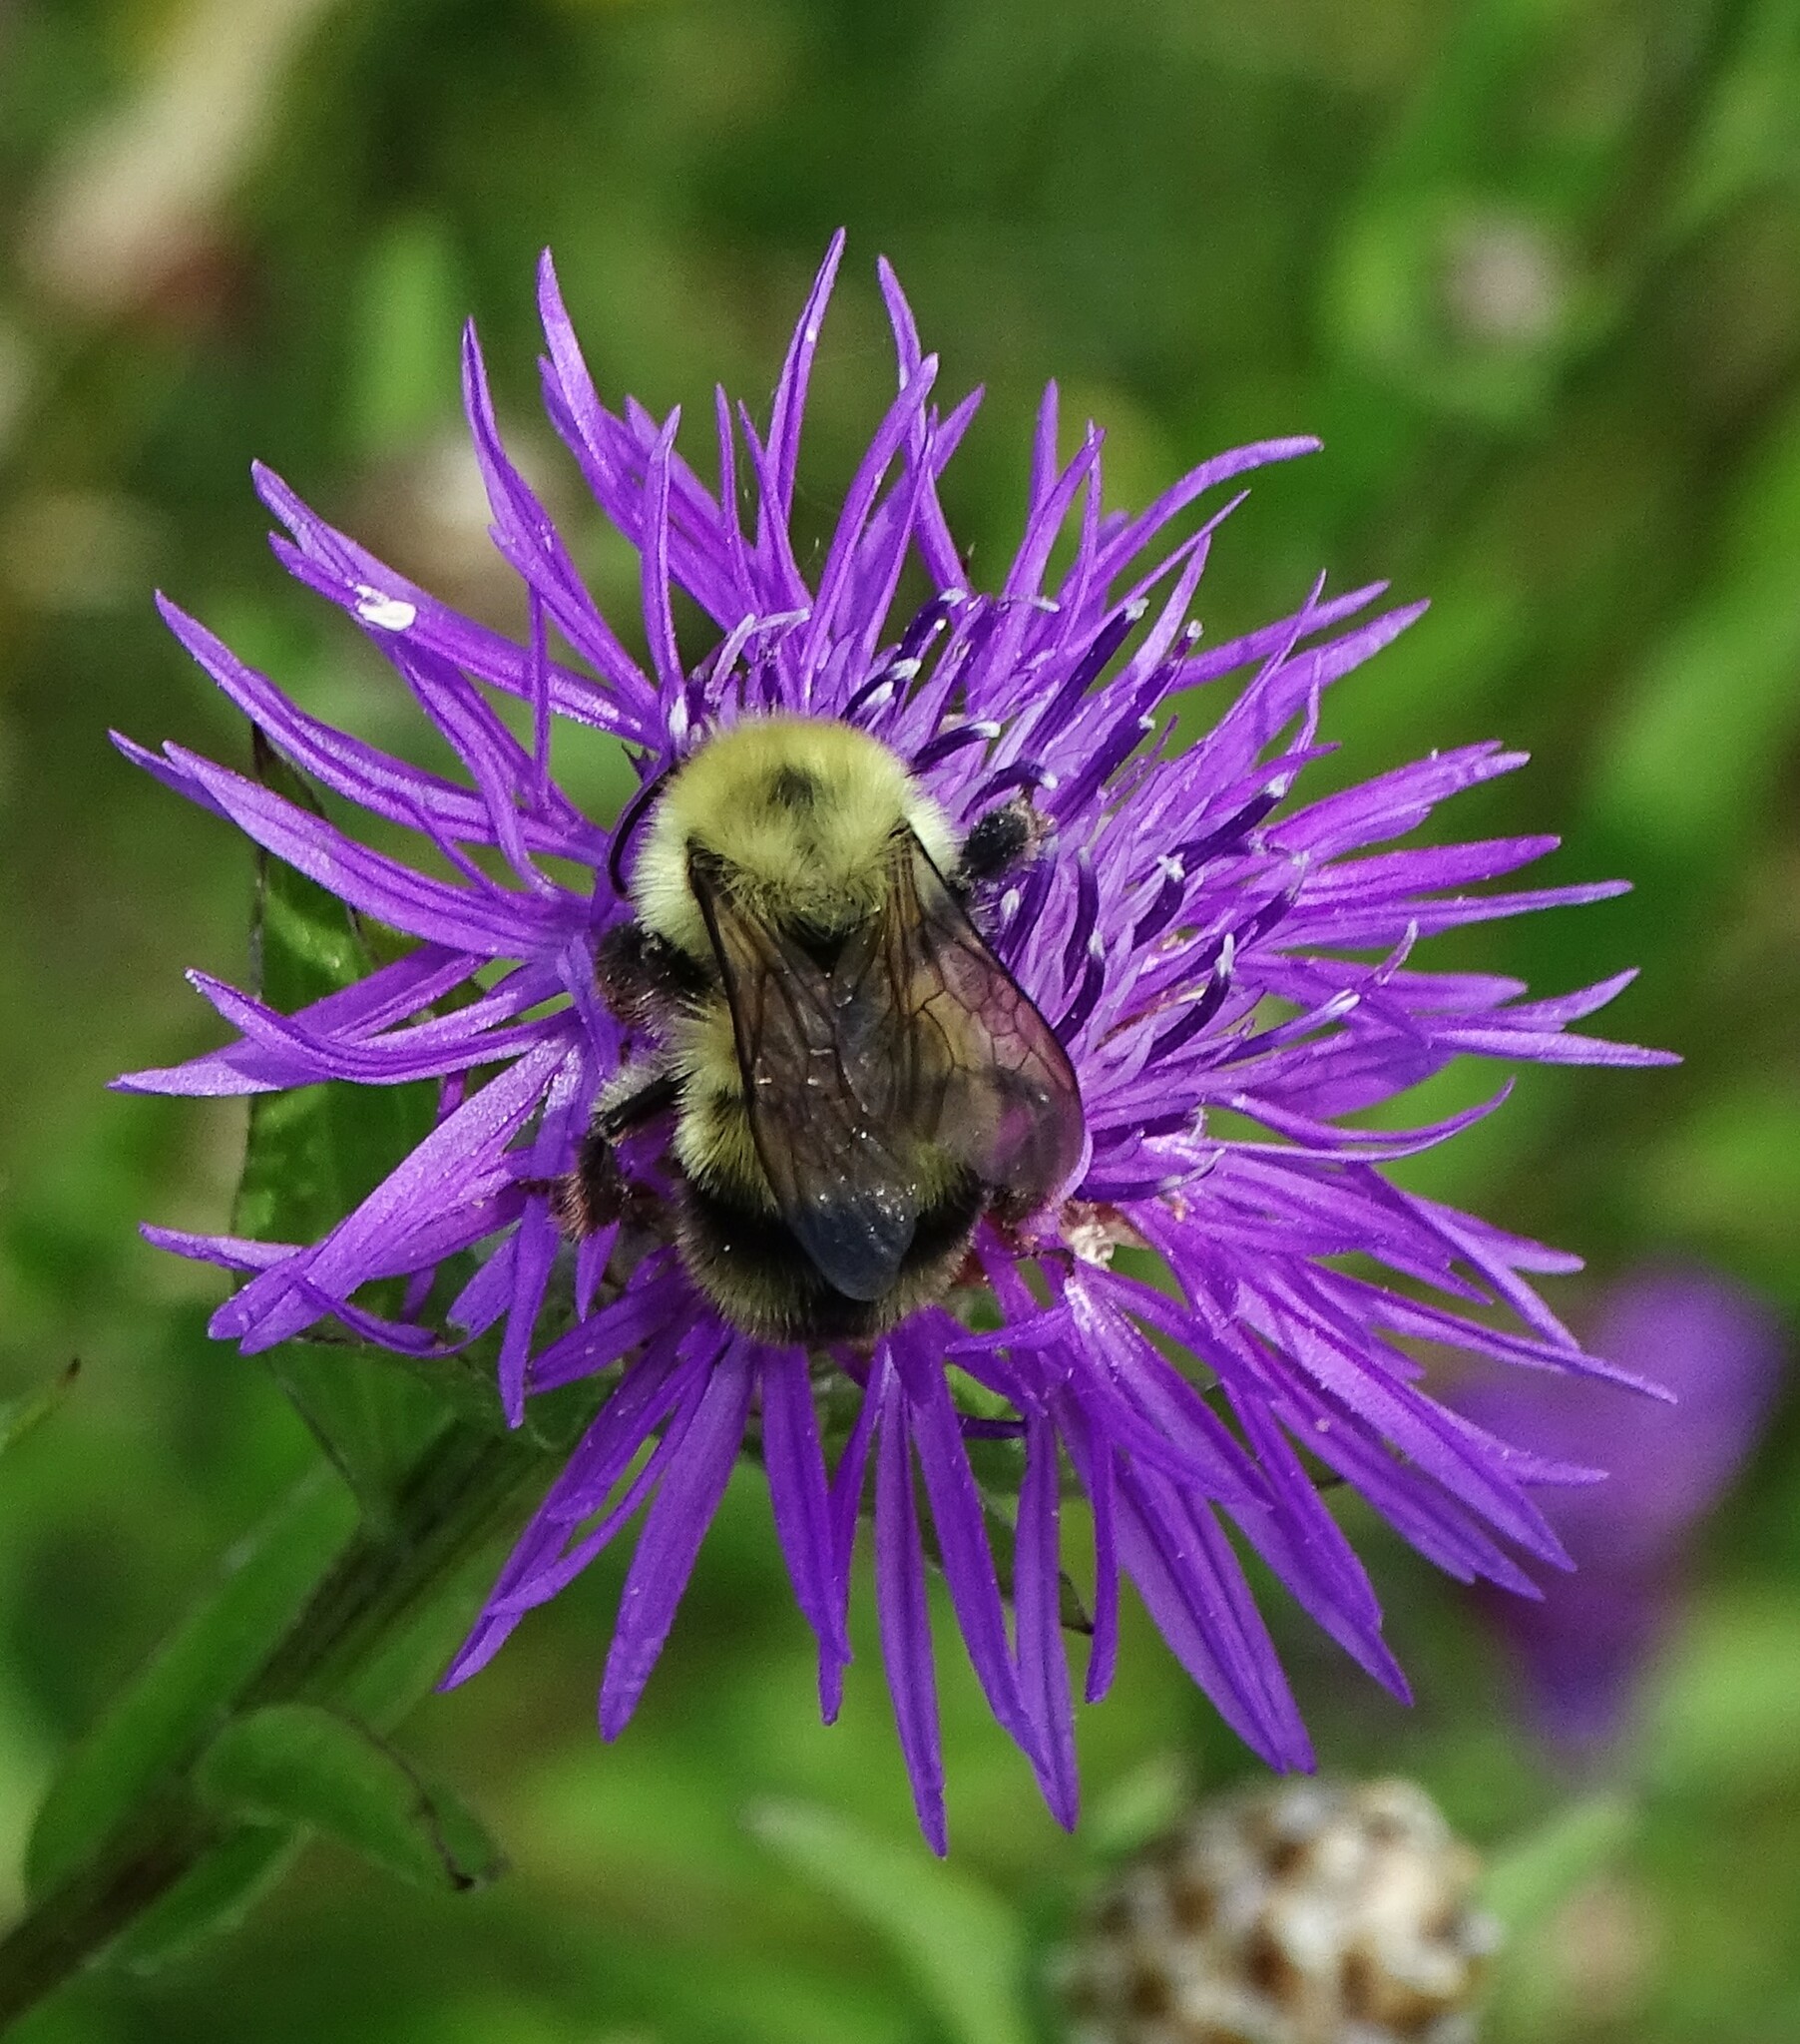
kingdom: Animalia
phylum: Arthropoda
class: Insecta
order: Hymenoptera
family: Apidae
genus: Bombus
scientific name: Bombus bimaculatus
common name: Two-spotted bumble bee
